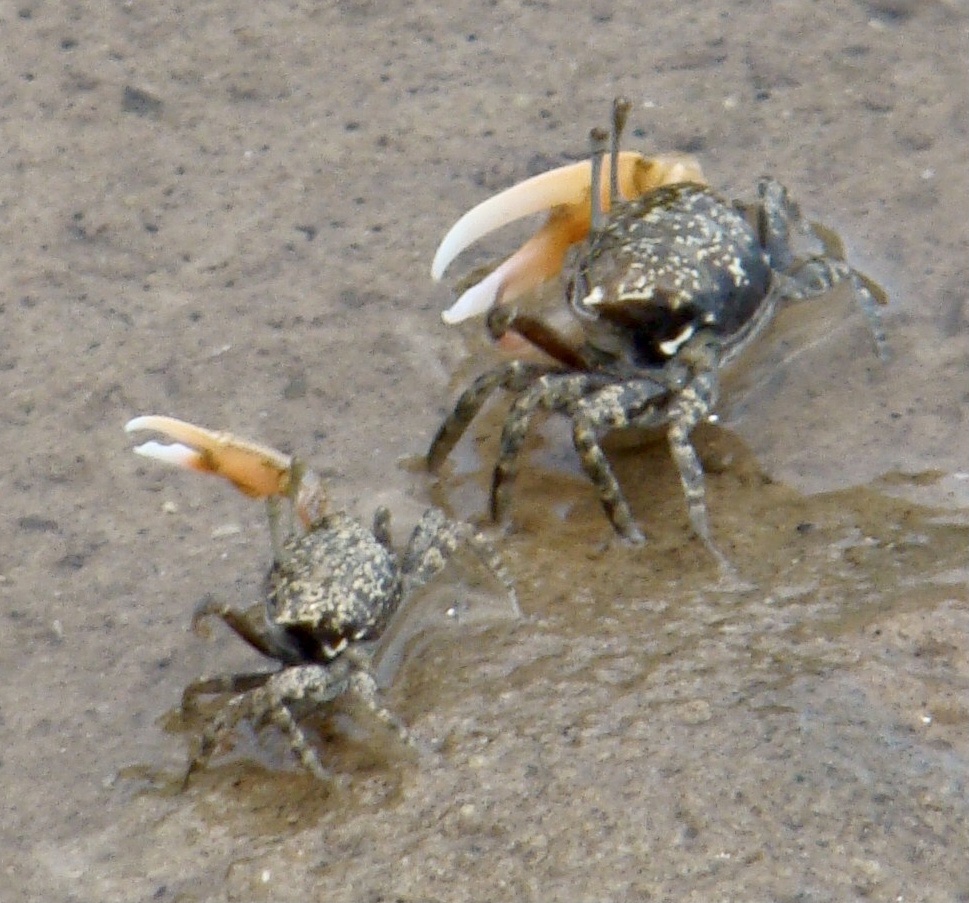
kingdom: Animalia
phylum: Arthropoda
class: Malacostraca
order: Decapoda
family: Ocypodidae
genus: Gelasimus
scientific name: Gelasimus hesperiae
